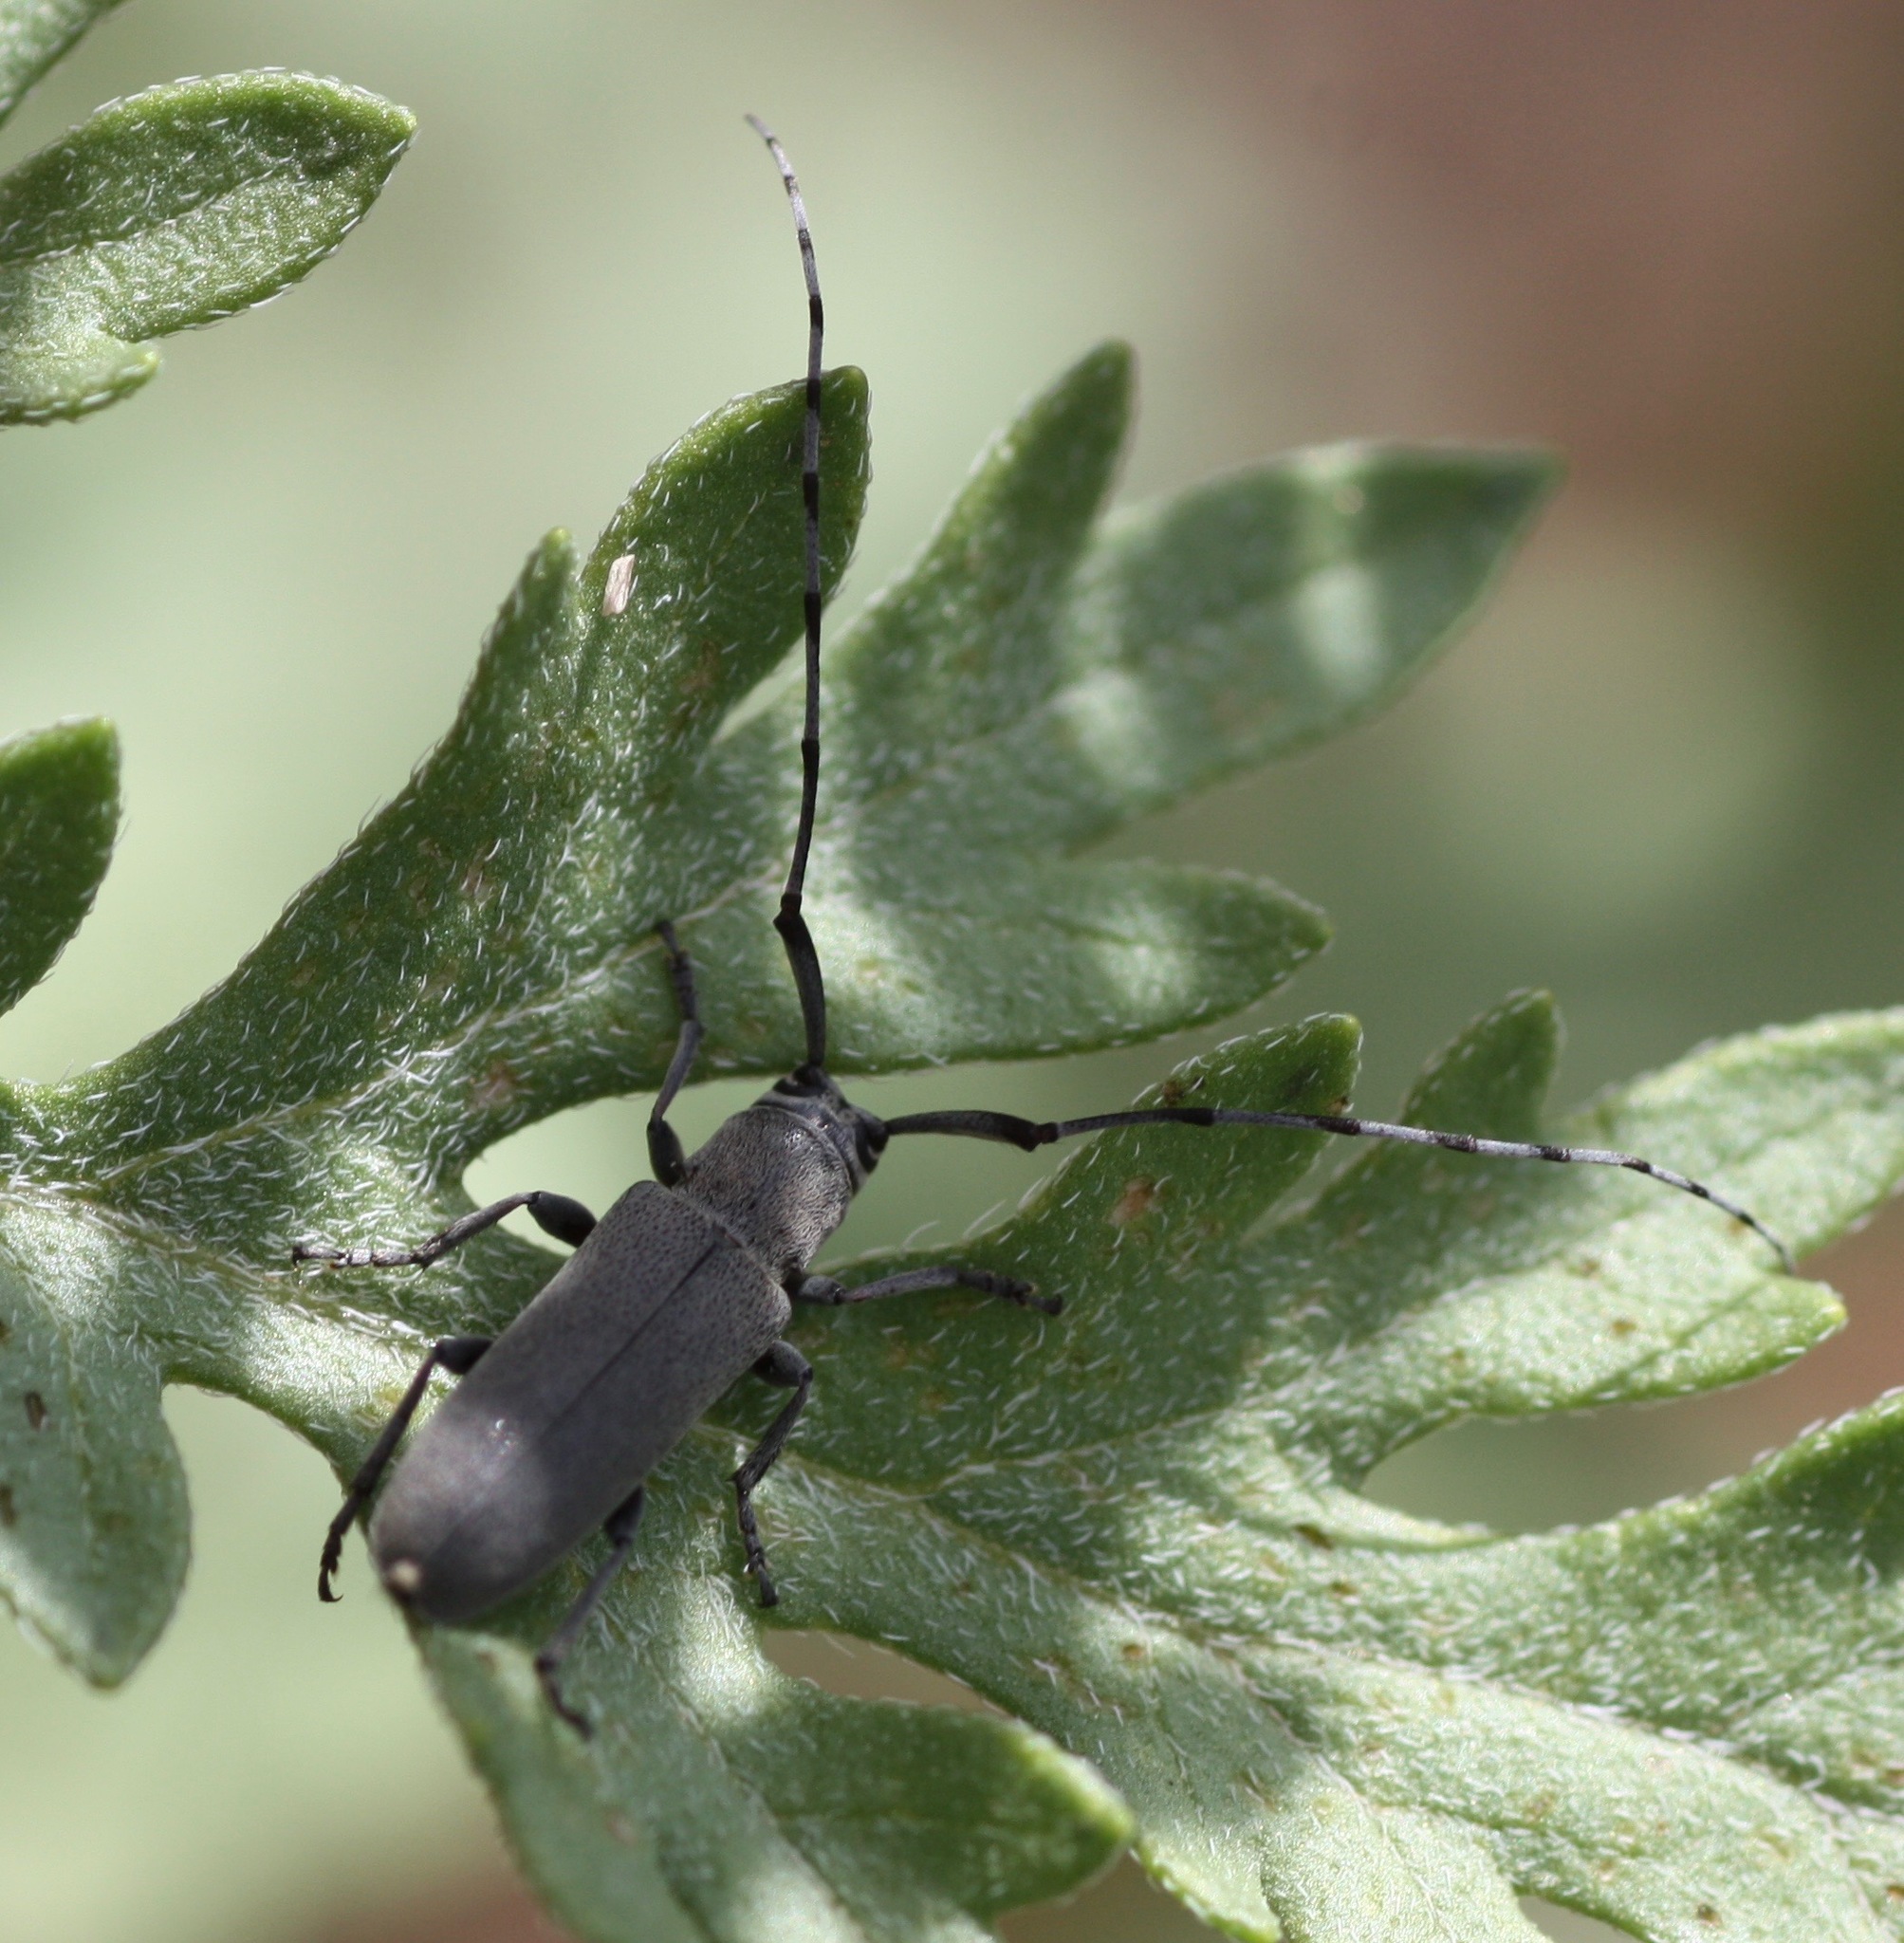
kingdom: Animalia
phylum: Arthropoda
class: Insecta
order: Coleoptera
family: Cerambycidae
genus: Dectes
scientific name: Dectes texanus
